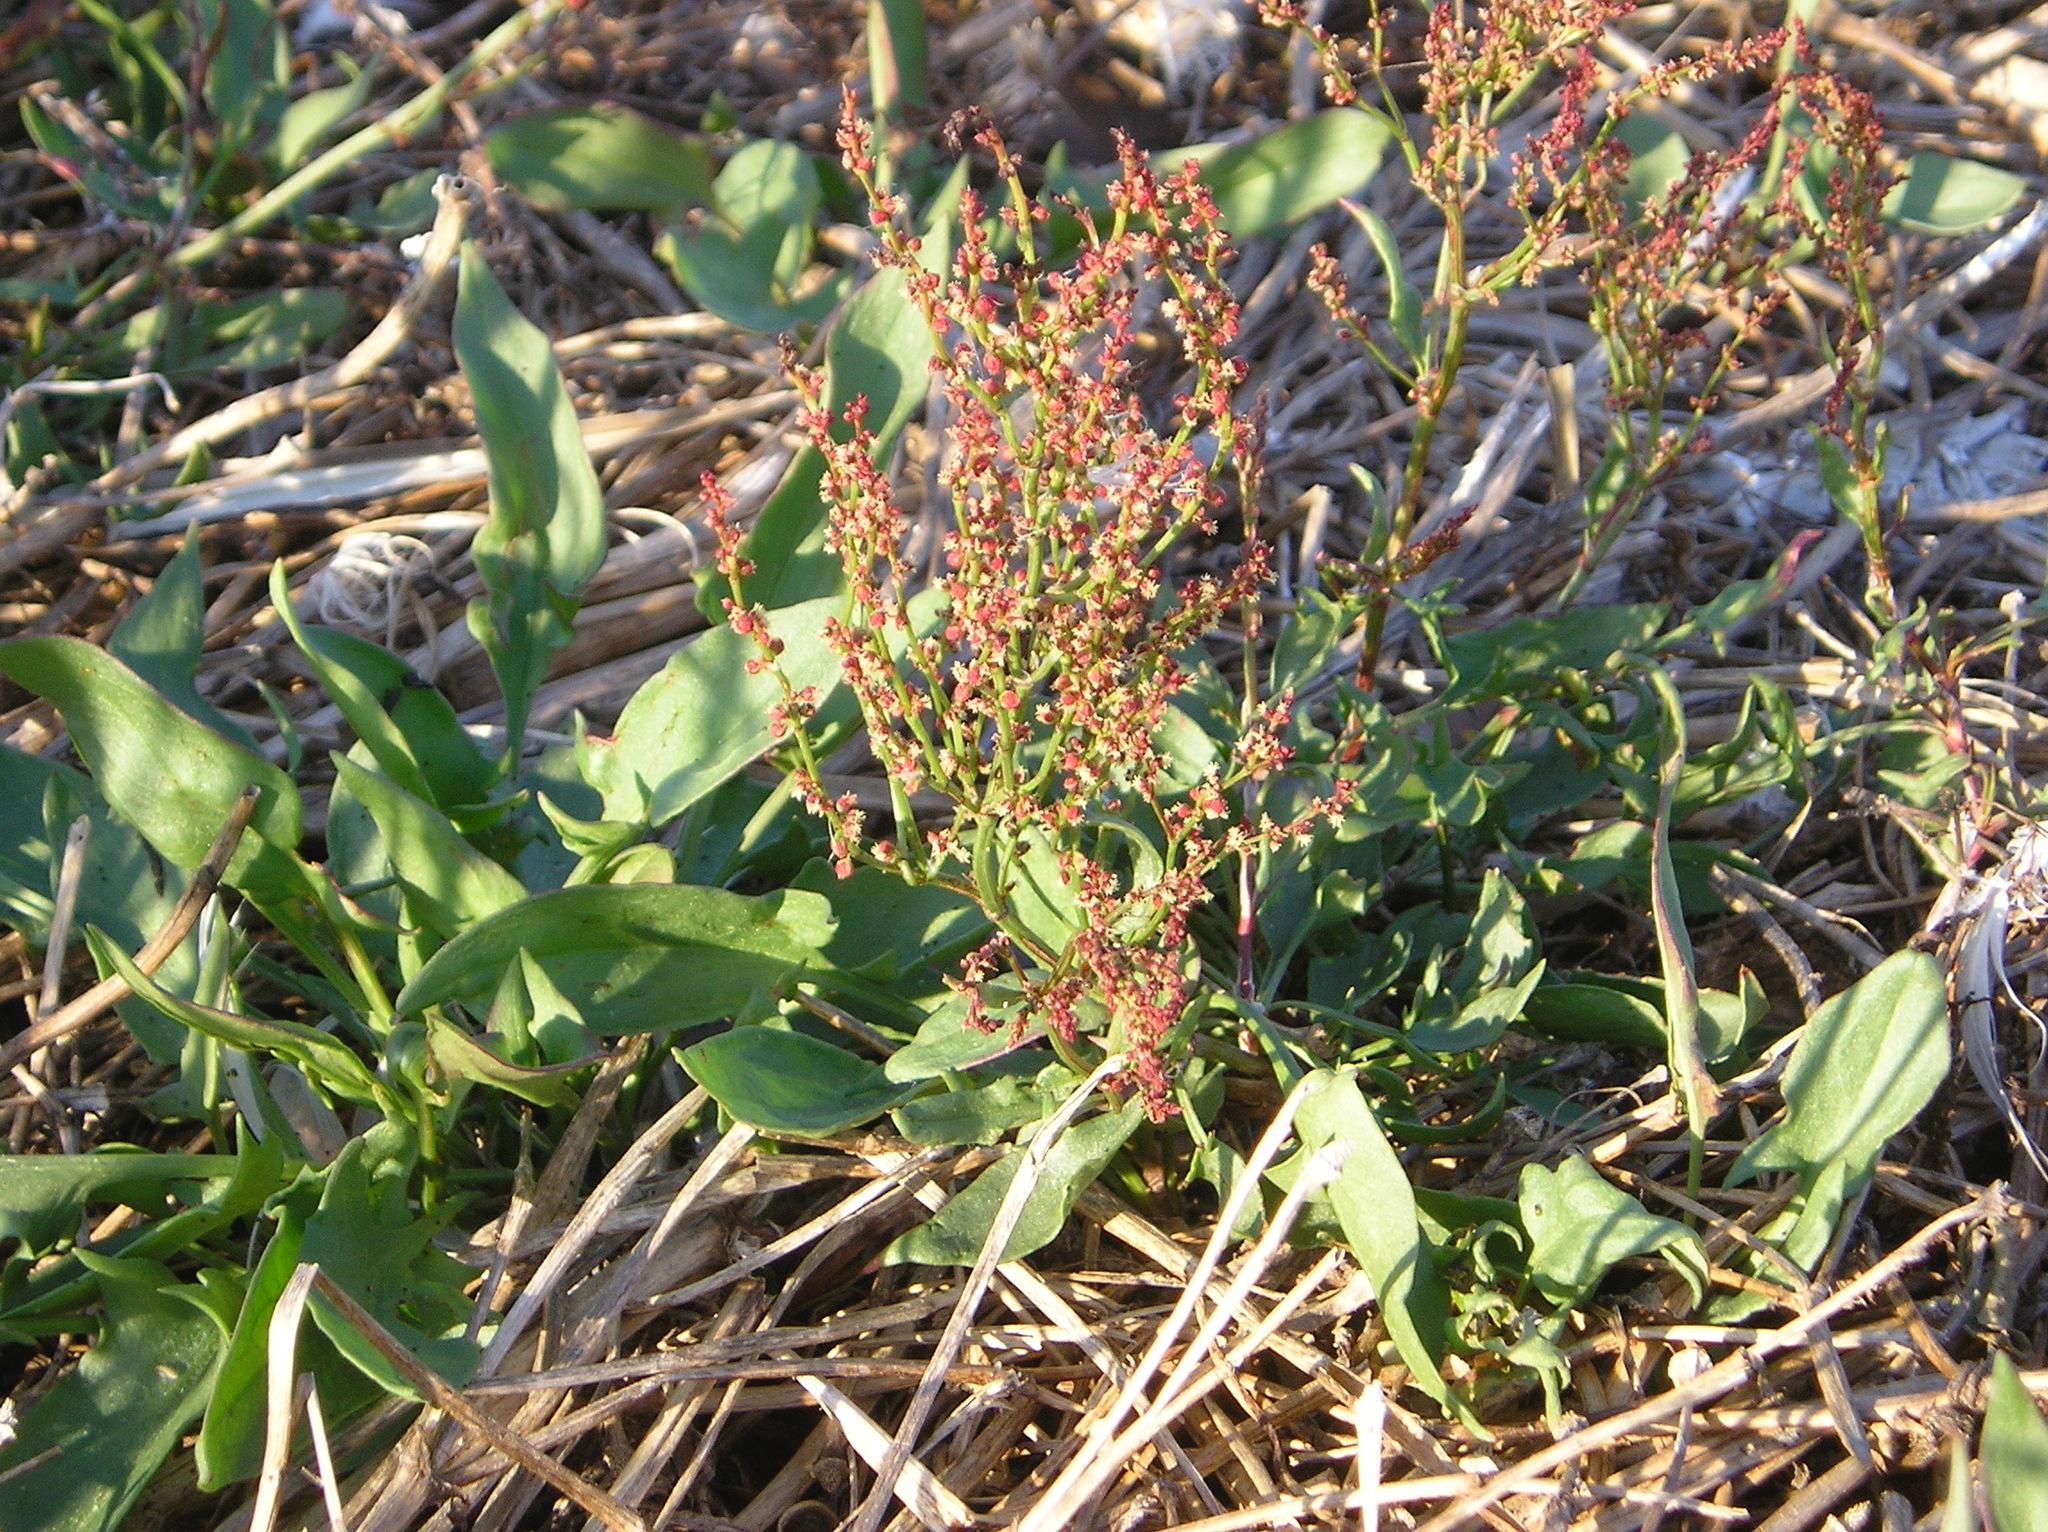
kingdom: Plantae
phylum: Tracheophyta
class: Magnoliopsida
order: Caryophyllales
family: Polygonaceae
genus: Rumex
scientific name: Rumex acetosella
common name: Common sheep sorrel
